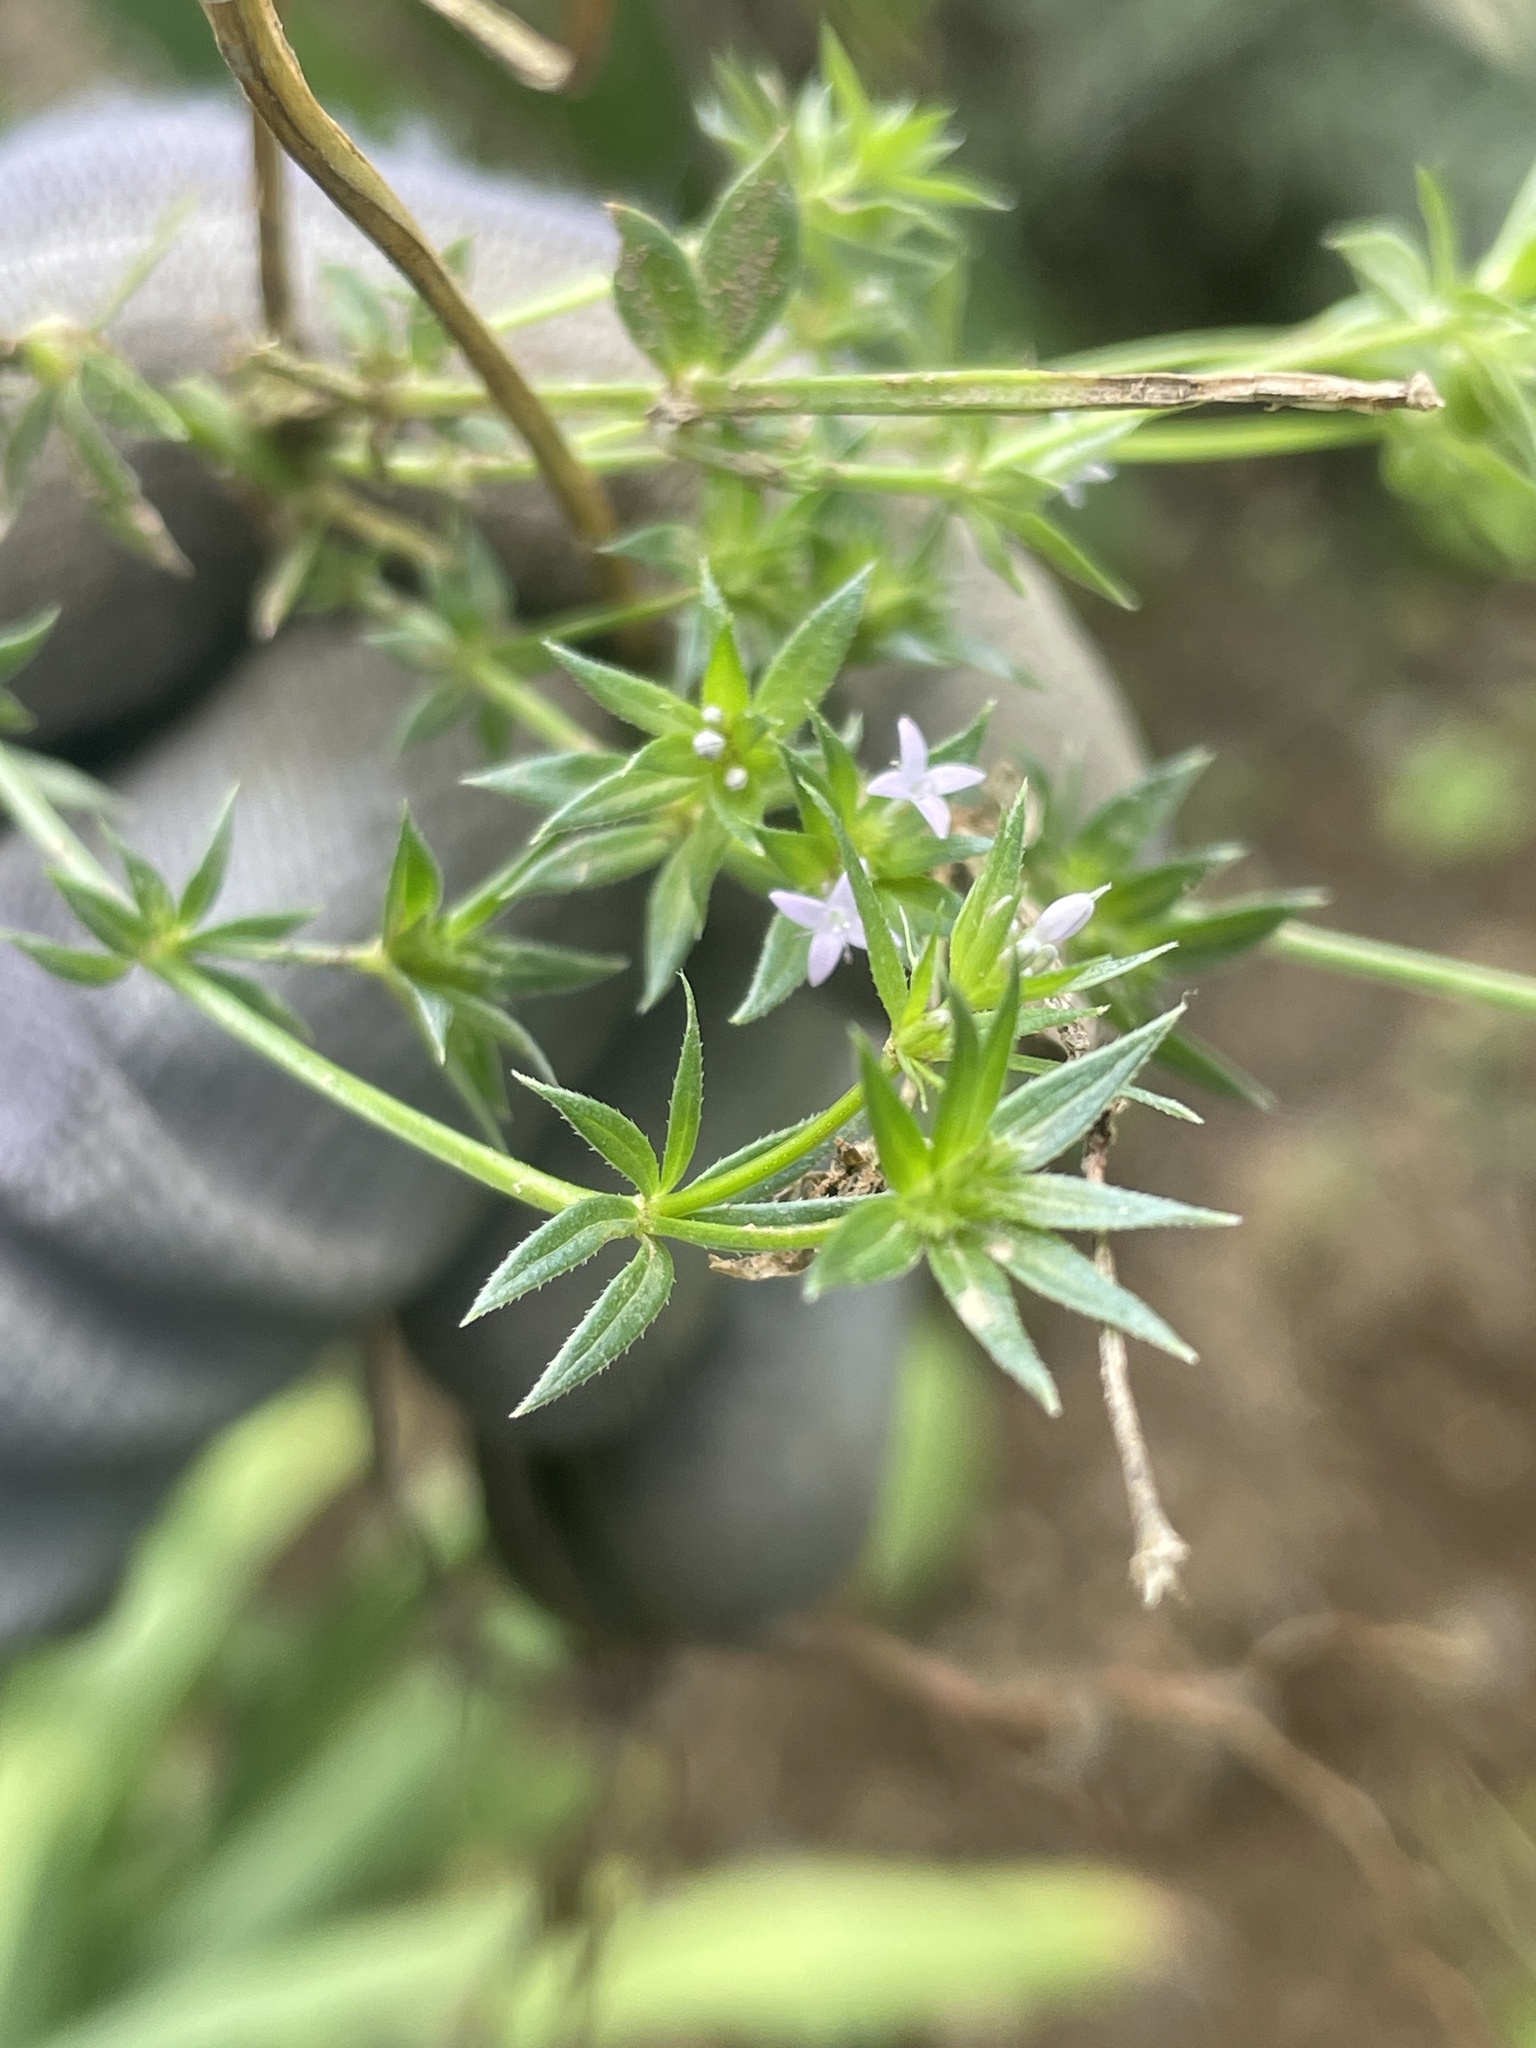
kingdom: Plantae
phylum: Tracheophyta
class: Magnoliopsida
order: Gentianales
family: Rubiaceae
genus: Sherardia
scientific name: Sherardia arvensis
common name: Field madder
